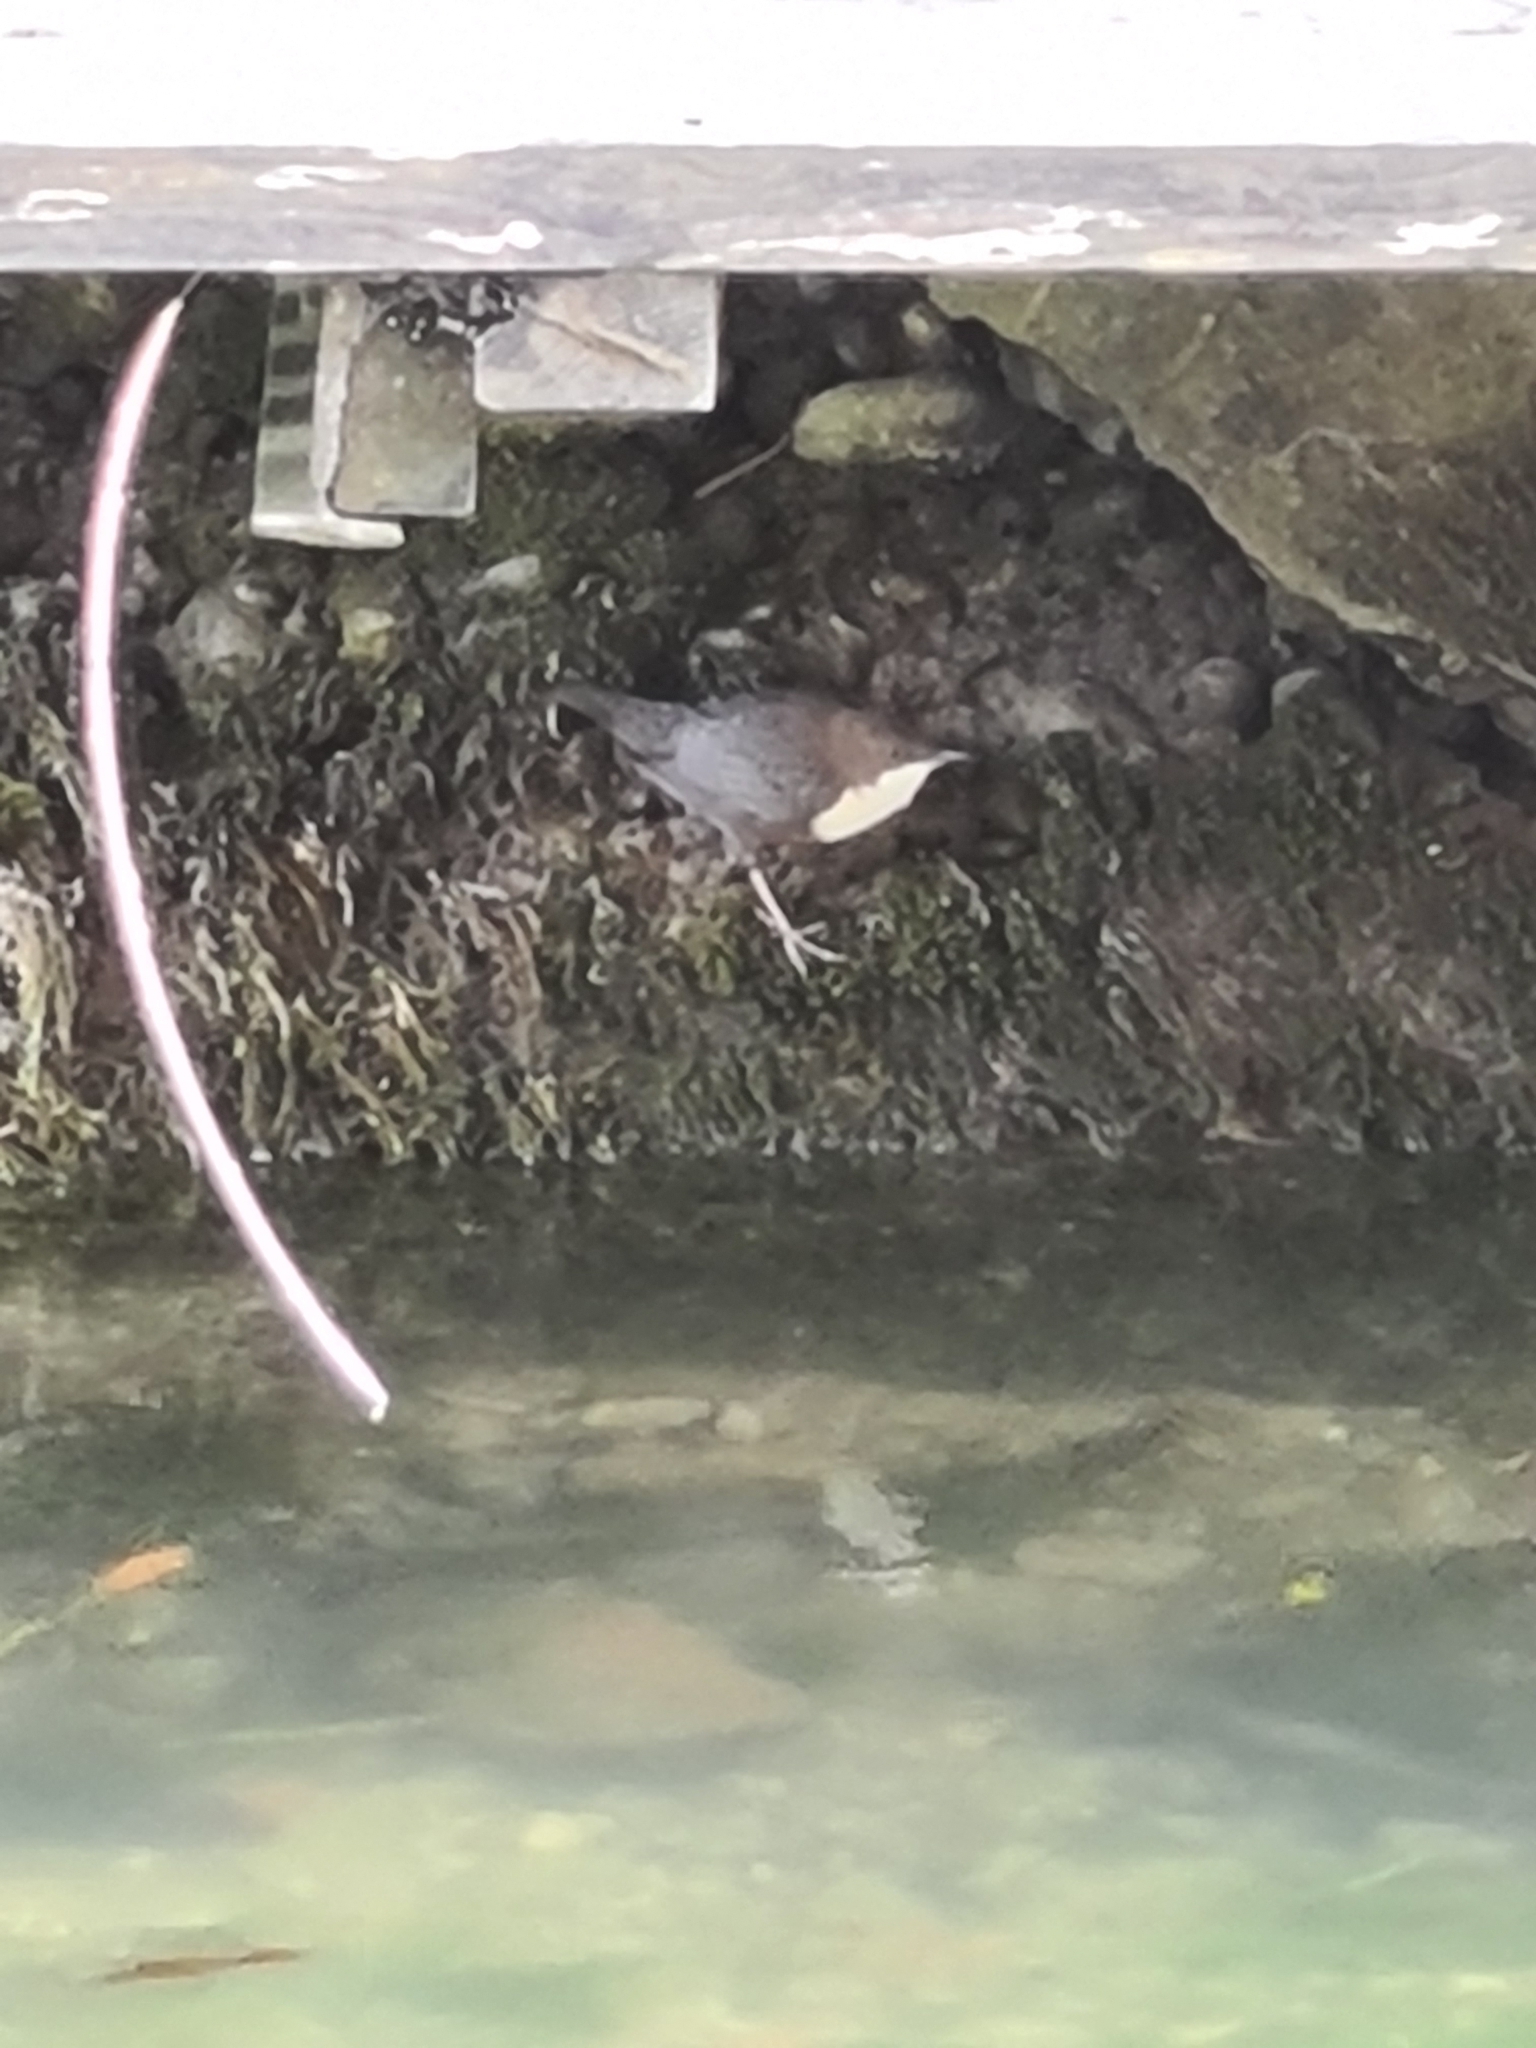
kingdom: Animalia
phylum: Chordata
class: Aves
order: Passeriformes
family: Cinclidae
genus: Cinclus
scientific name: Cinclus cinclus
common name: White-throated dipper
